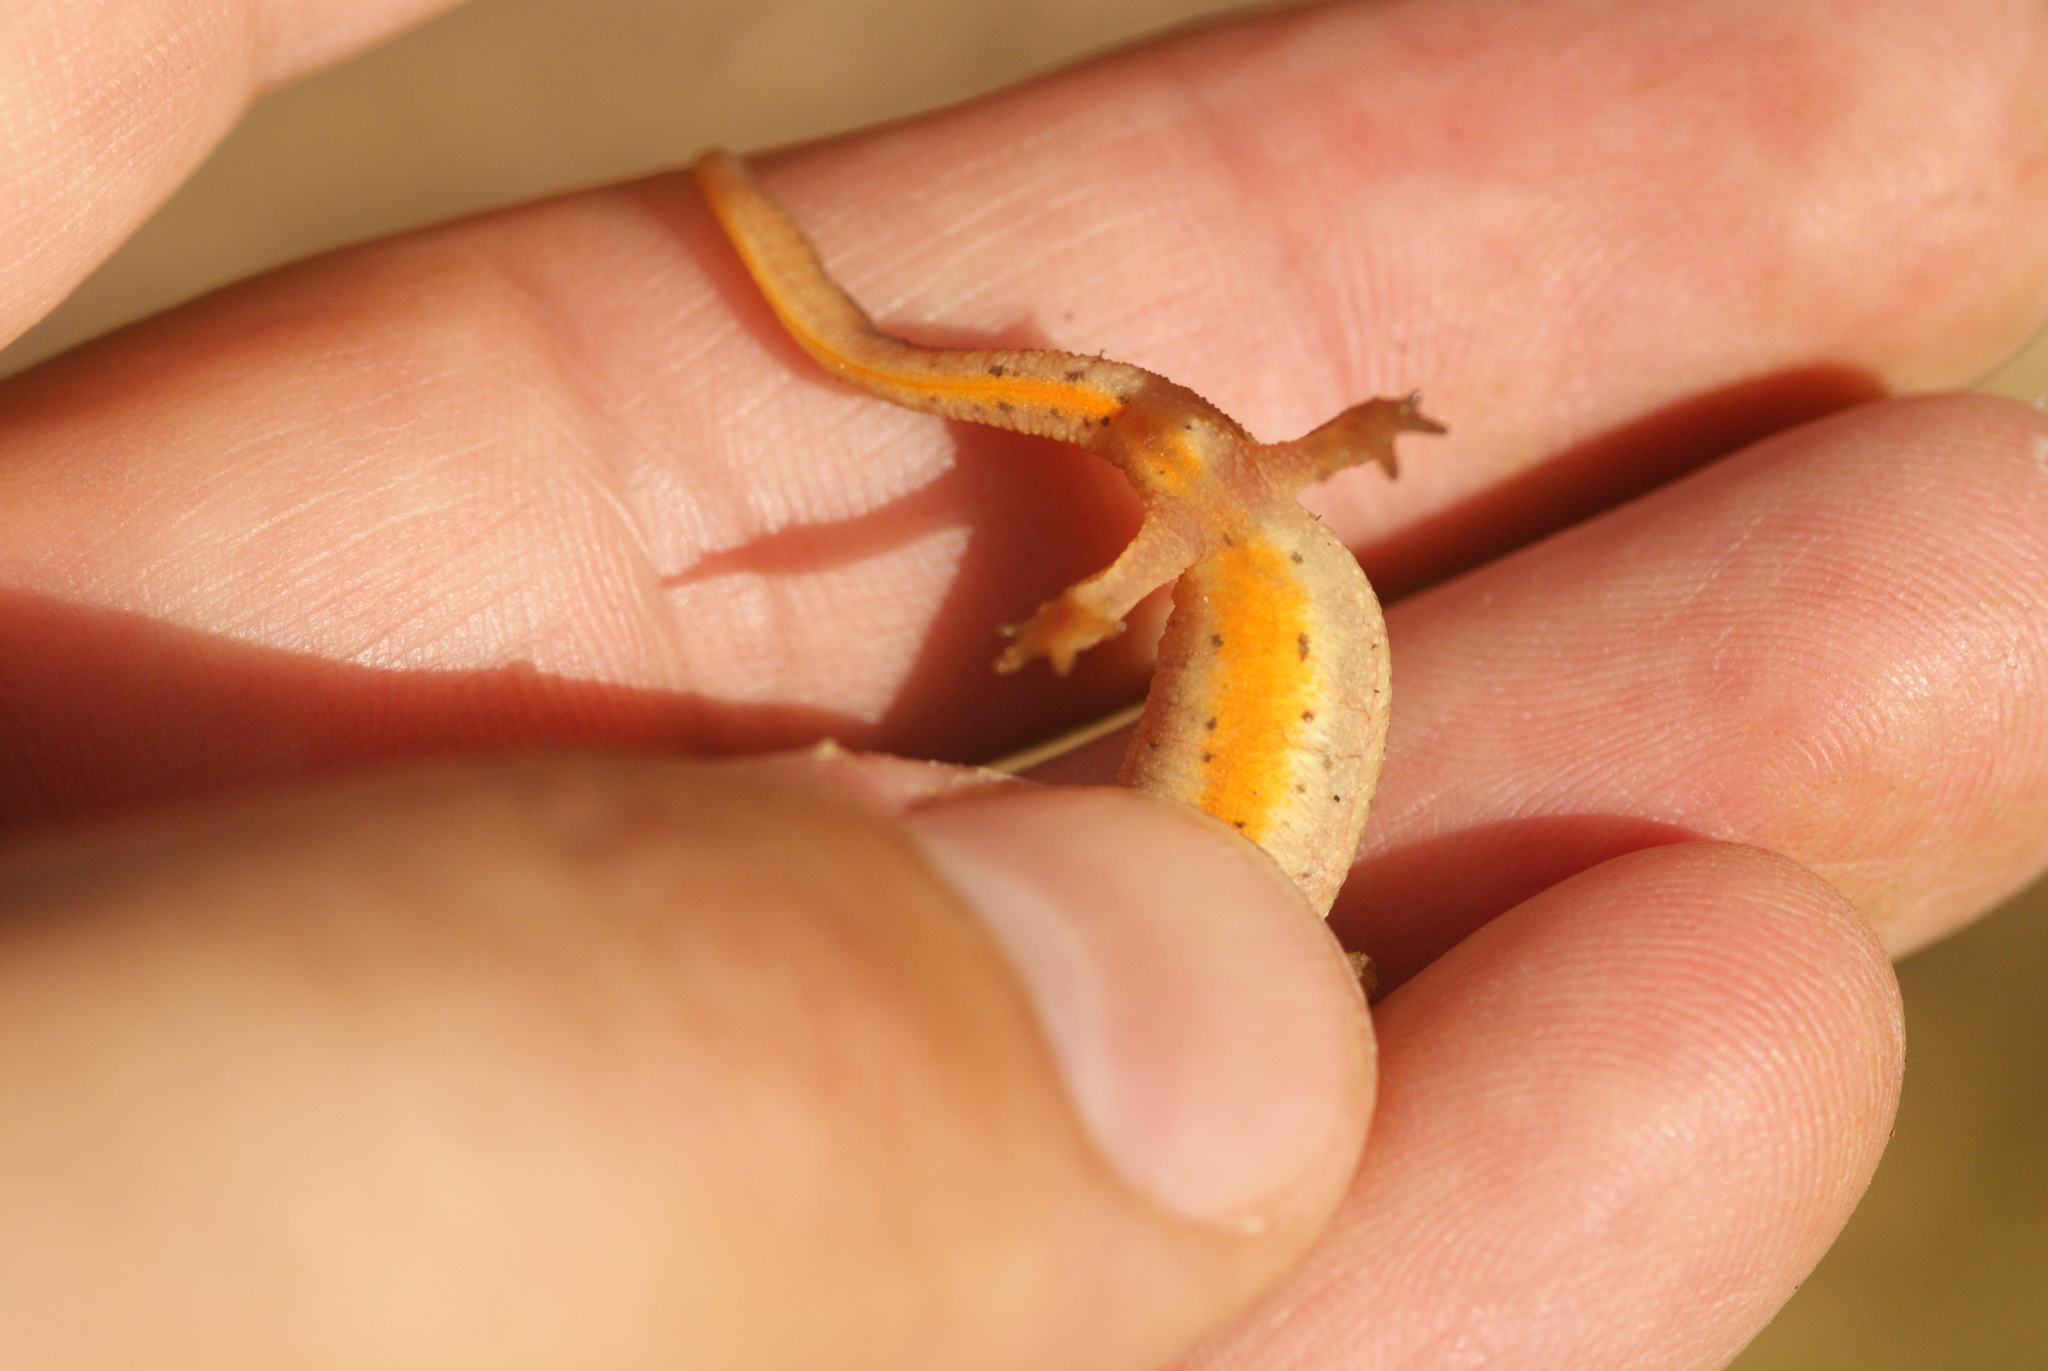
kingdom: Animalia
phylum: Chordata
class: Amphibia
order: Caudata
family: Salamandridae
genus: Lissotriton
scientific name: Lissotriton helveticus
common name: Palmate newt
